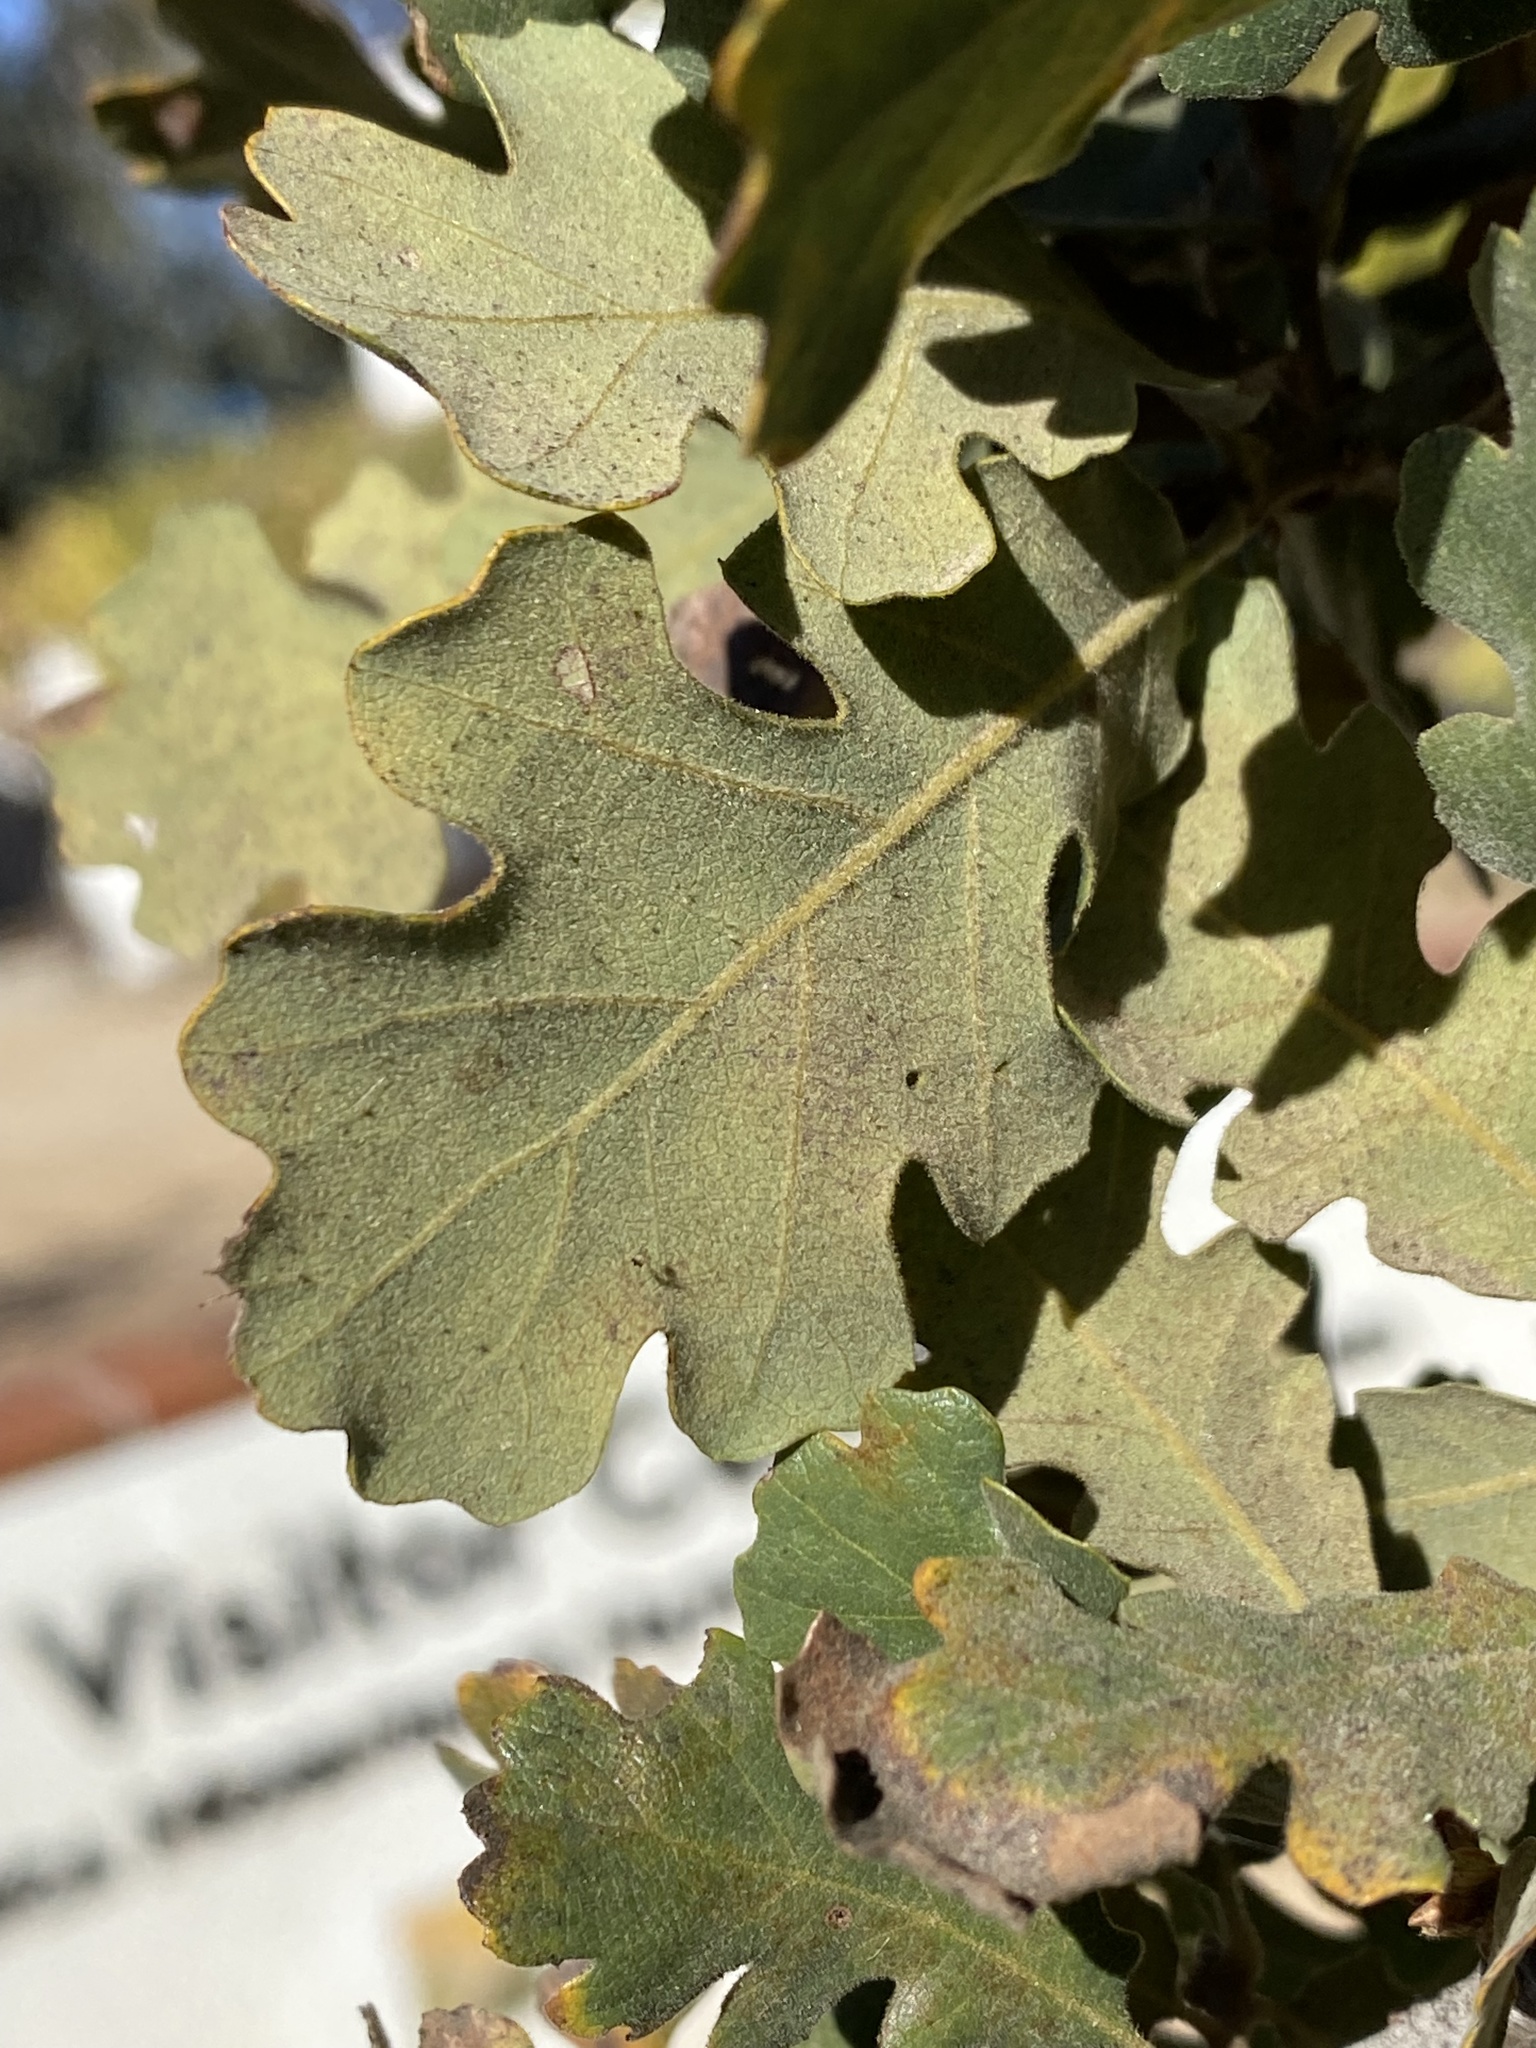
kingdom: Plantae
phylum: Tracheophyta
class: Magnoliopsida
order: Fagales
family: Fagaceae
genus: Quercus
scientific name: Quercus lobata
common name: Valley oak
